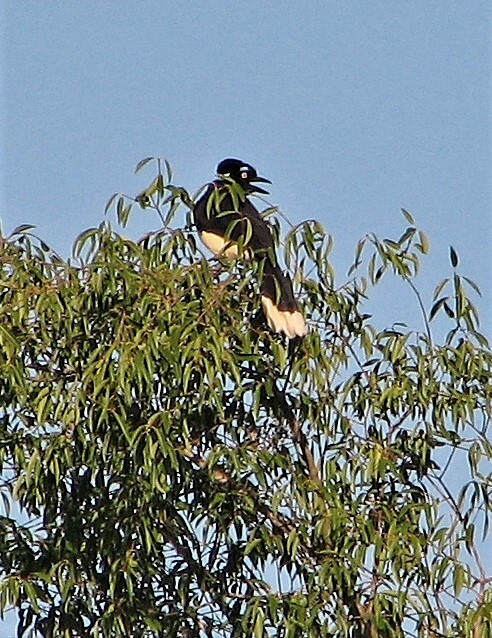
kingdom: Animalia
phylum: Chordata
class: Aves
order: Passeriformes
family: Corvidae
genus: Cyanocorax
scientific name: Cyanocorax chrysops
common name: Plush-crested jay
